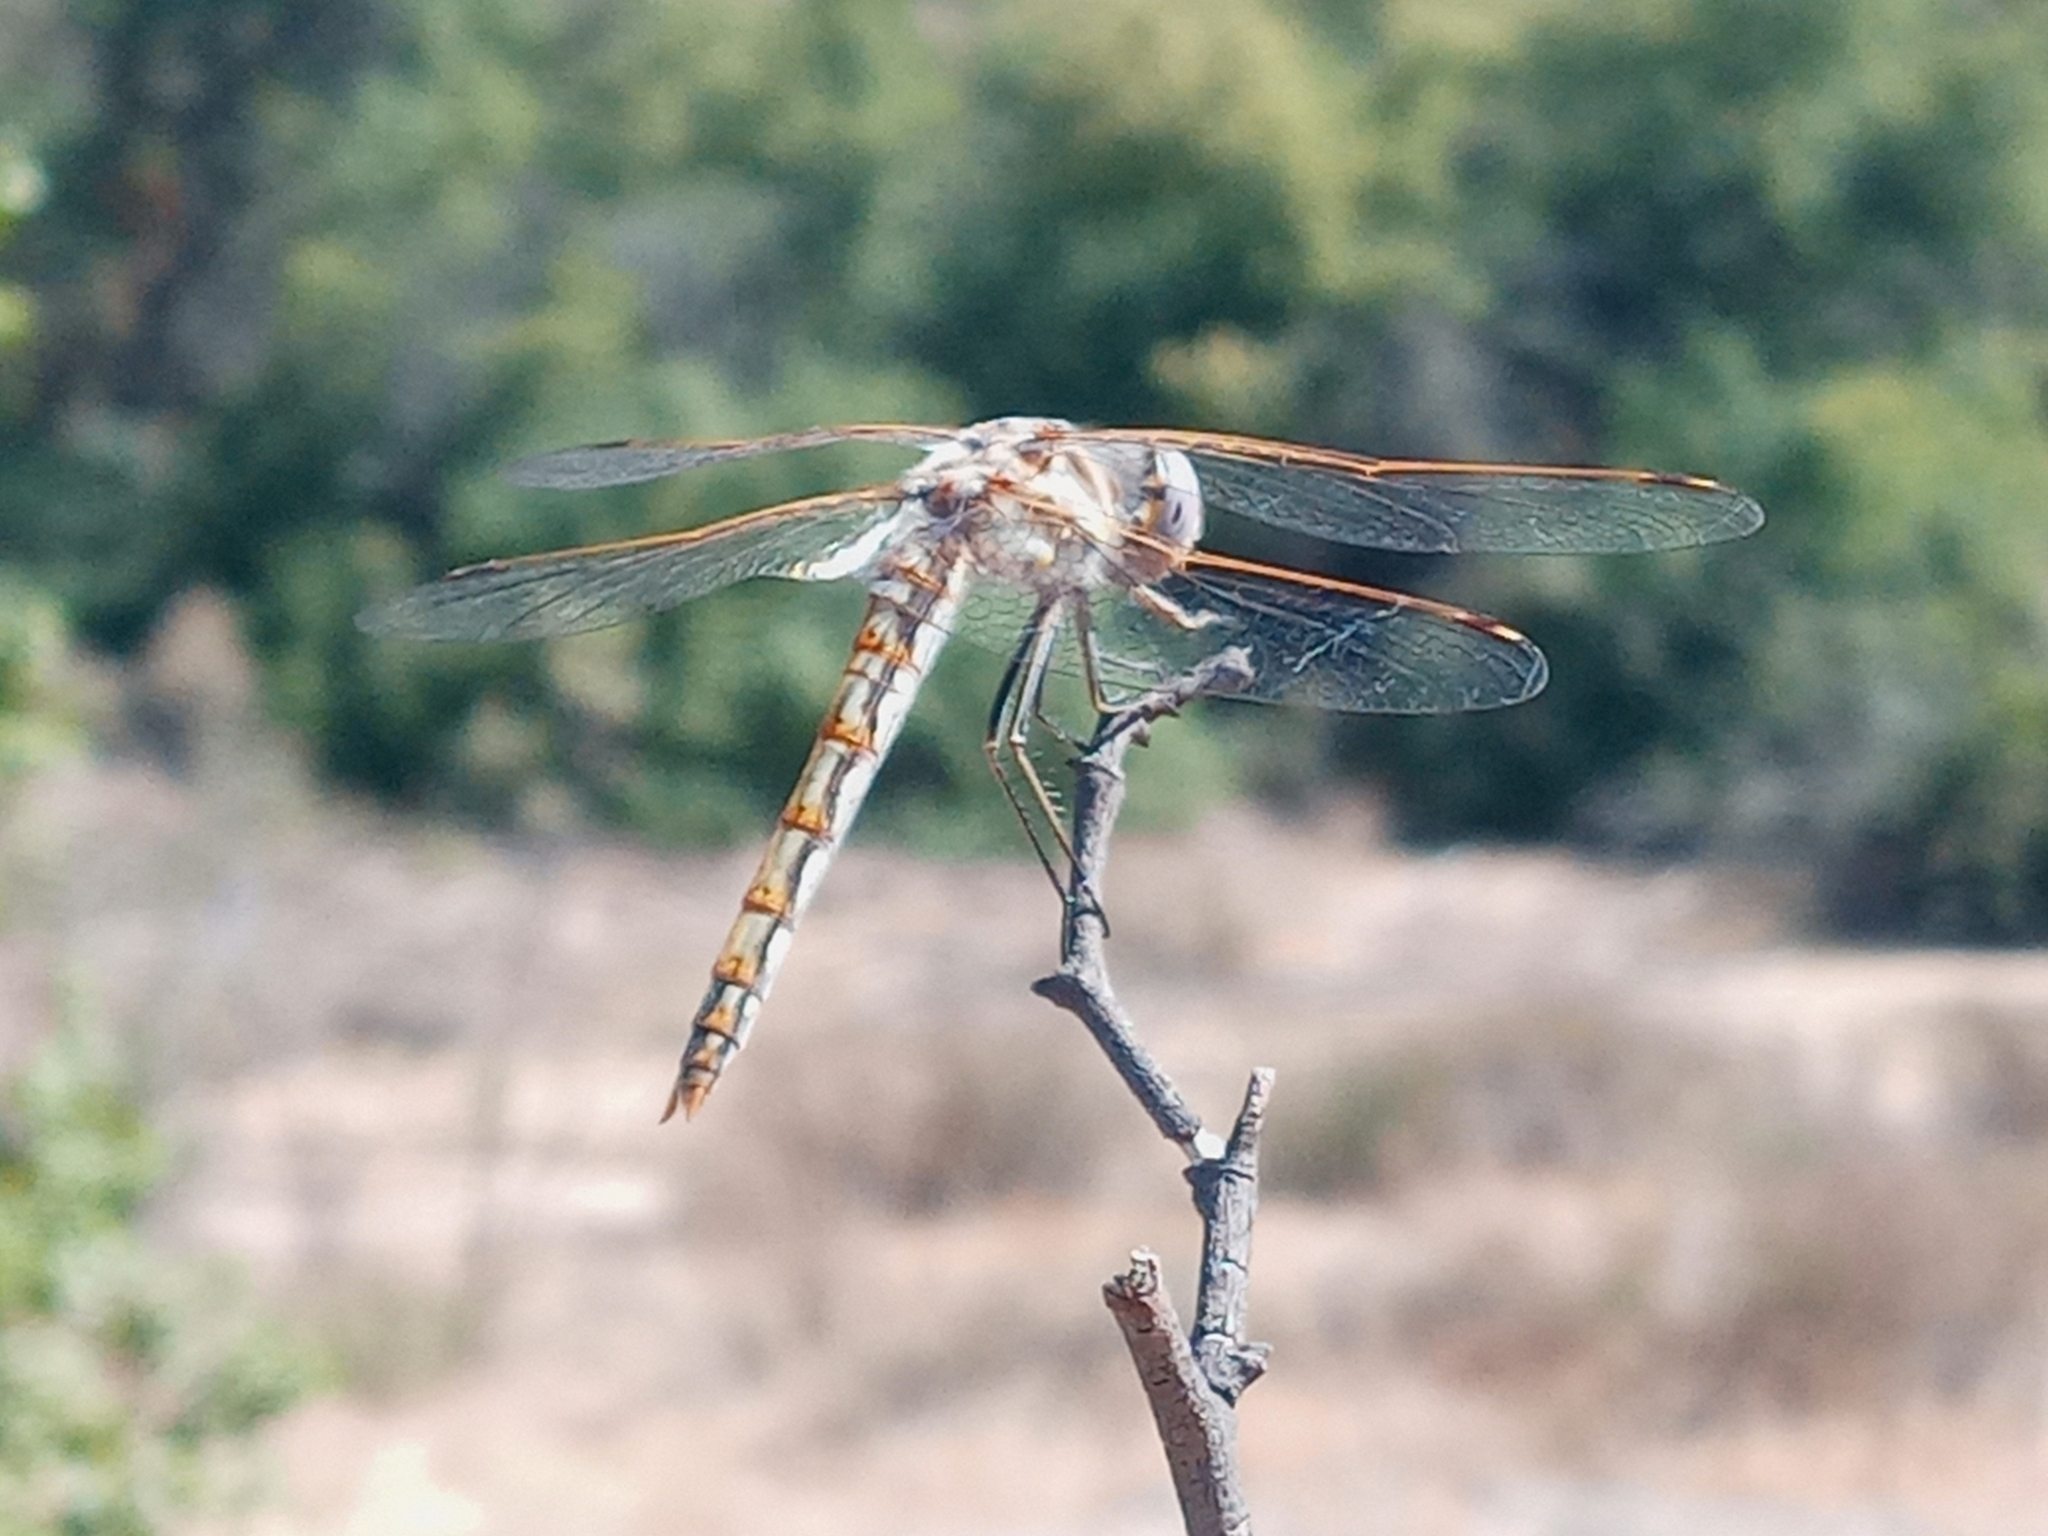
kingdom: Animalia
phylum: Arthropoda
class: Insecta
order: Odonata
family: Libellulidae
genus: Sympetrum
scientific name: Sympetrum corruptum
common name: Variegated meadowhawk
